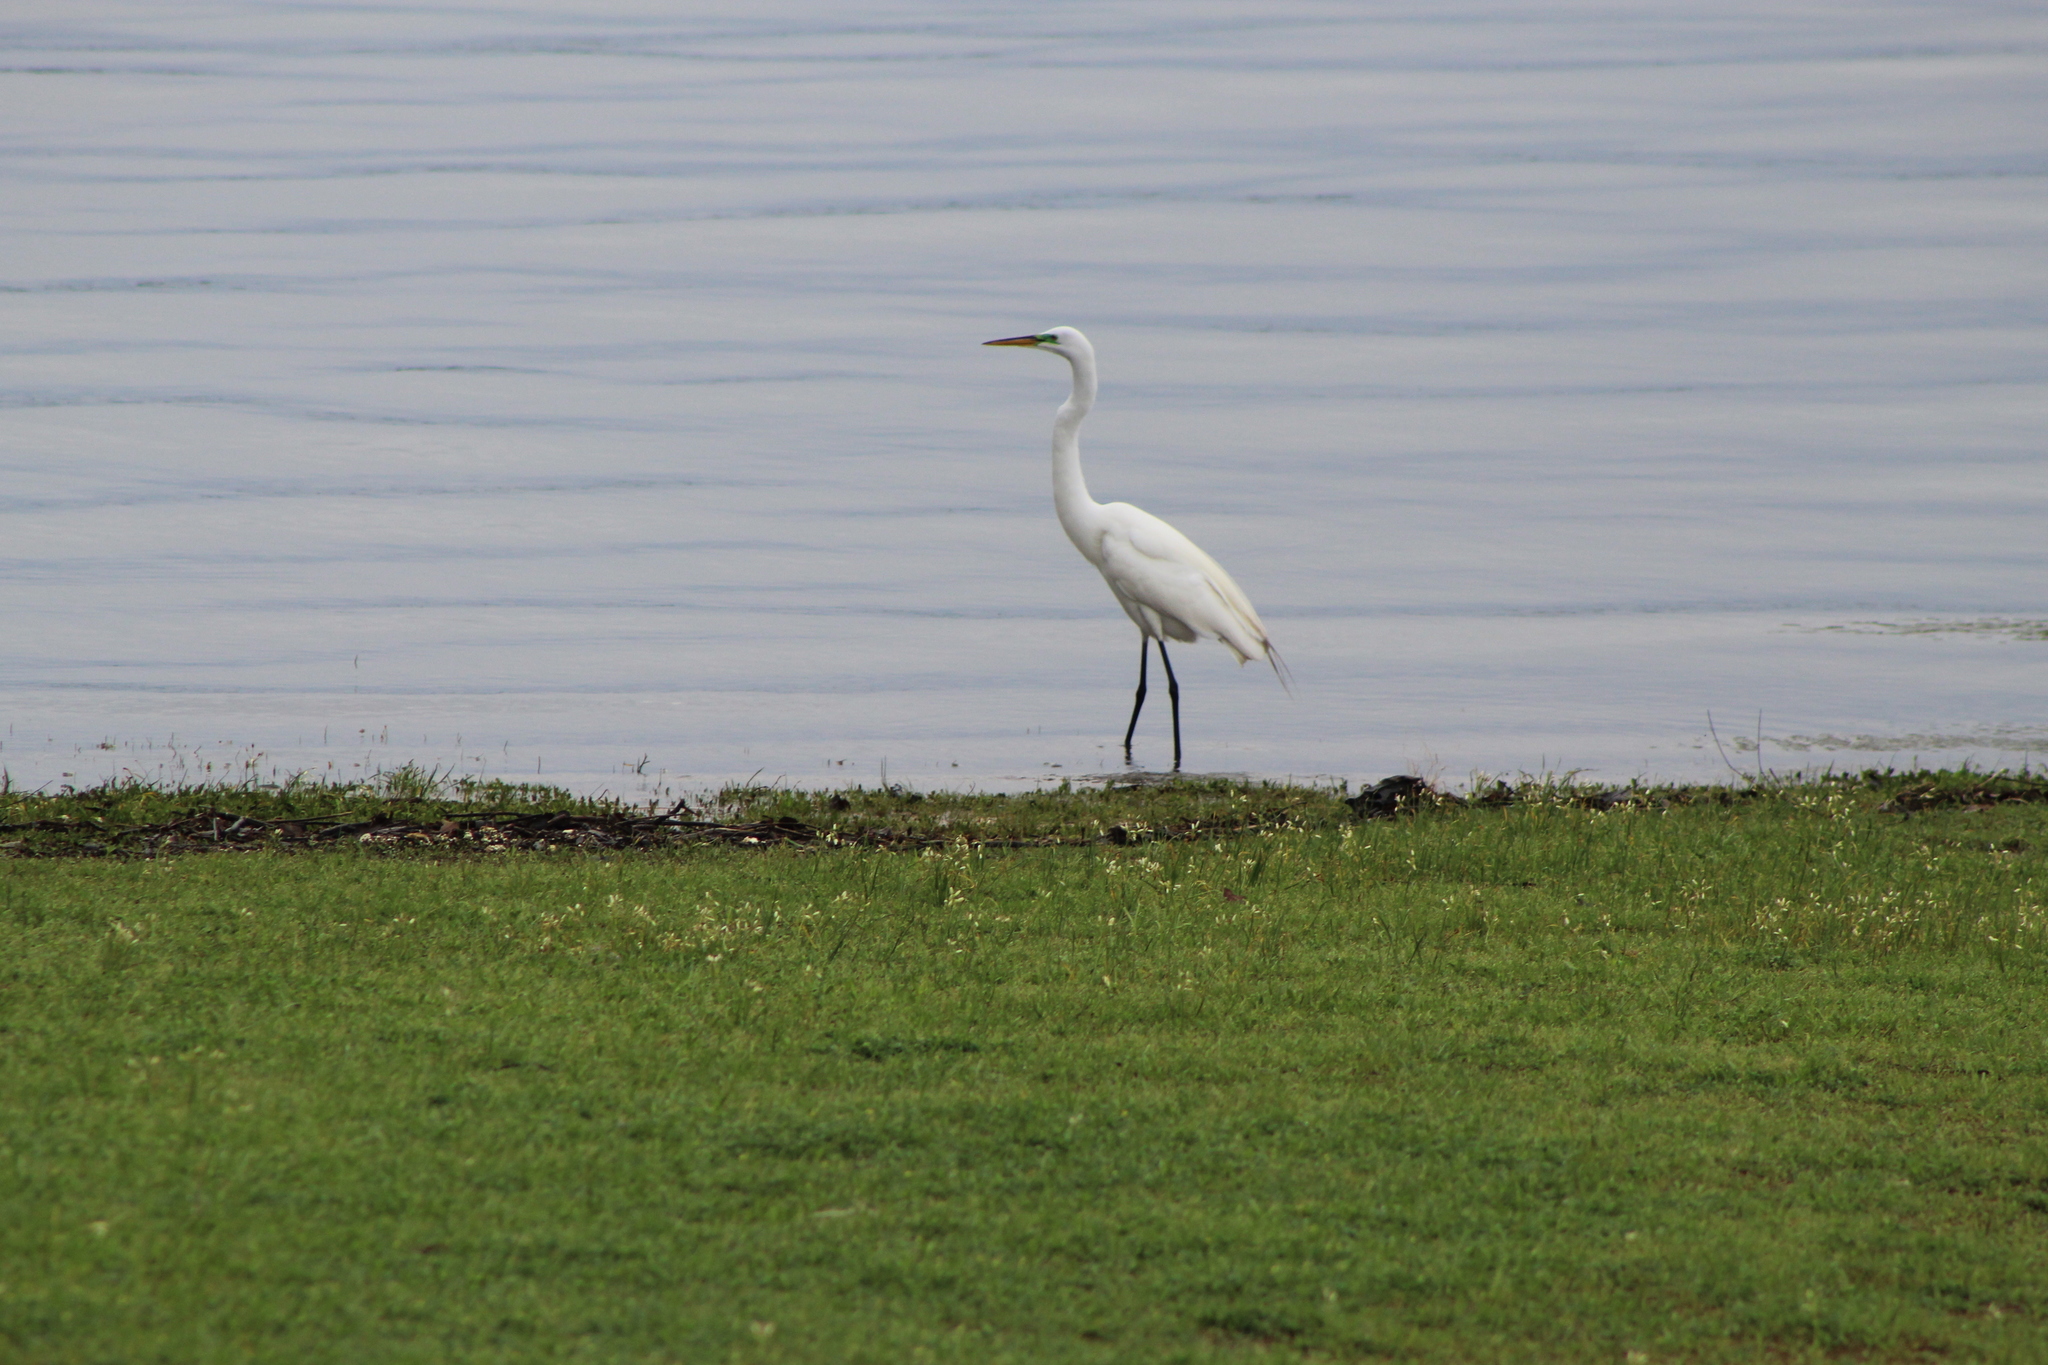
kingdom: Animalia
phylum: Chordata
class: Aves
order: Pelecaniformes
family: Ardeidae
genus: Ardea
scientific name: Ardea alba
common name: Great egret
